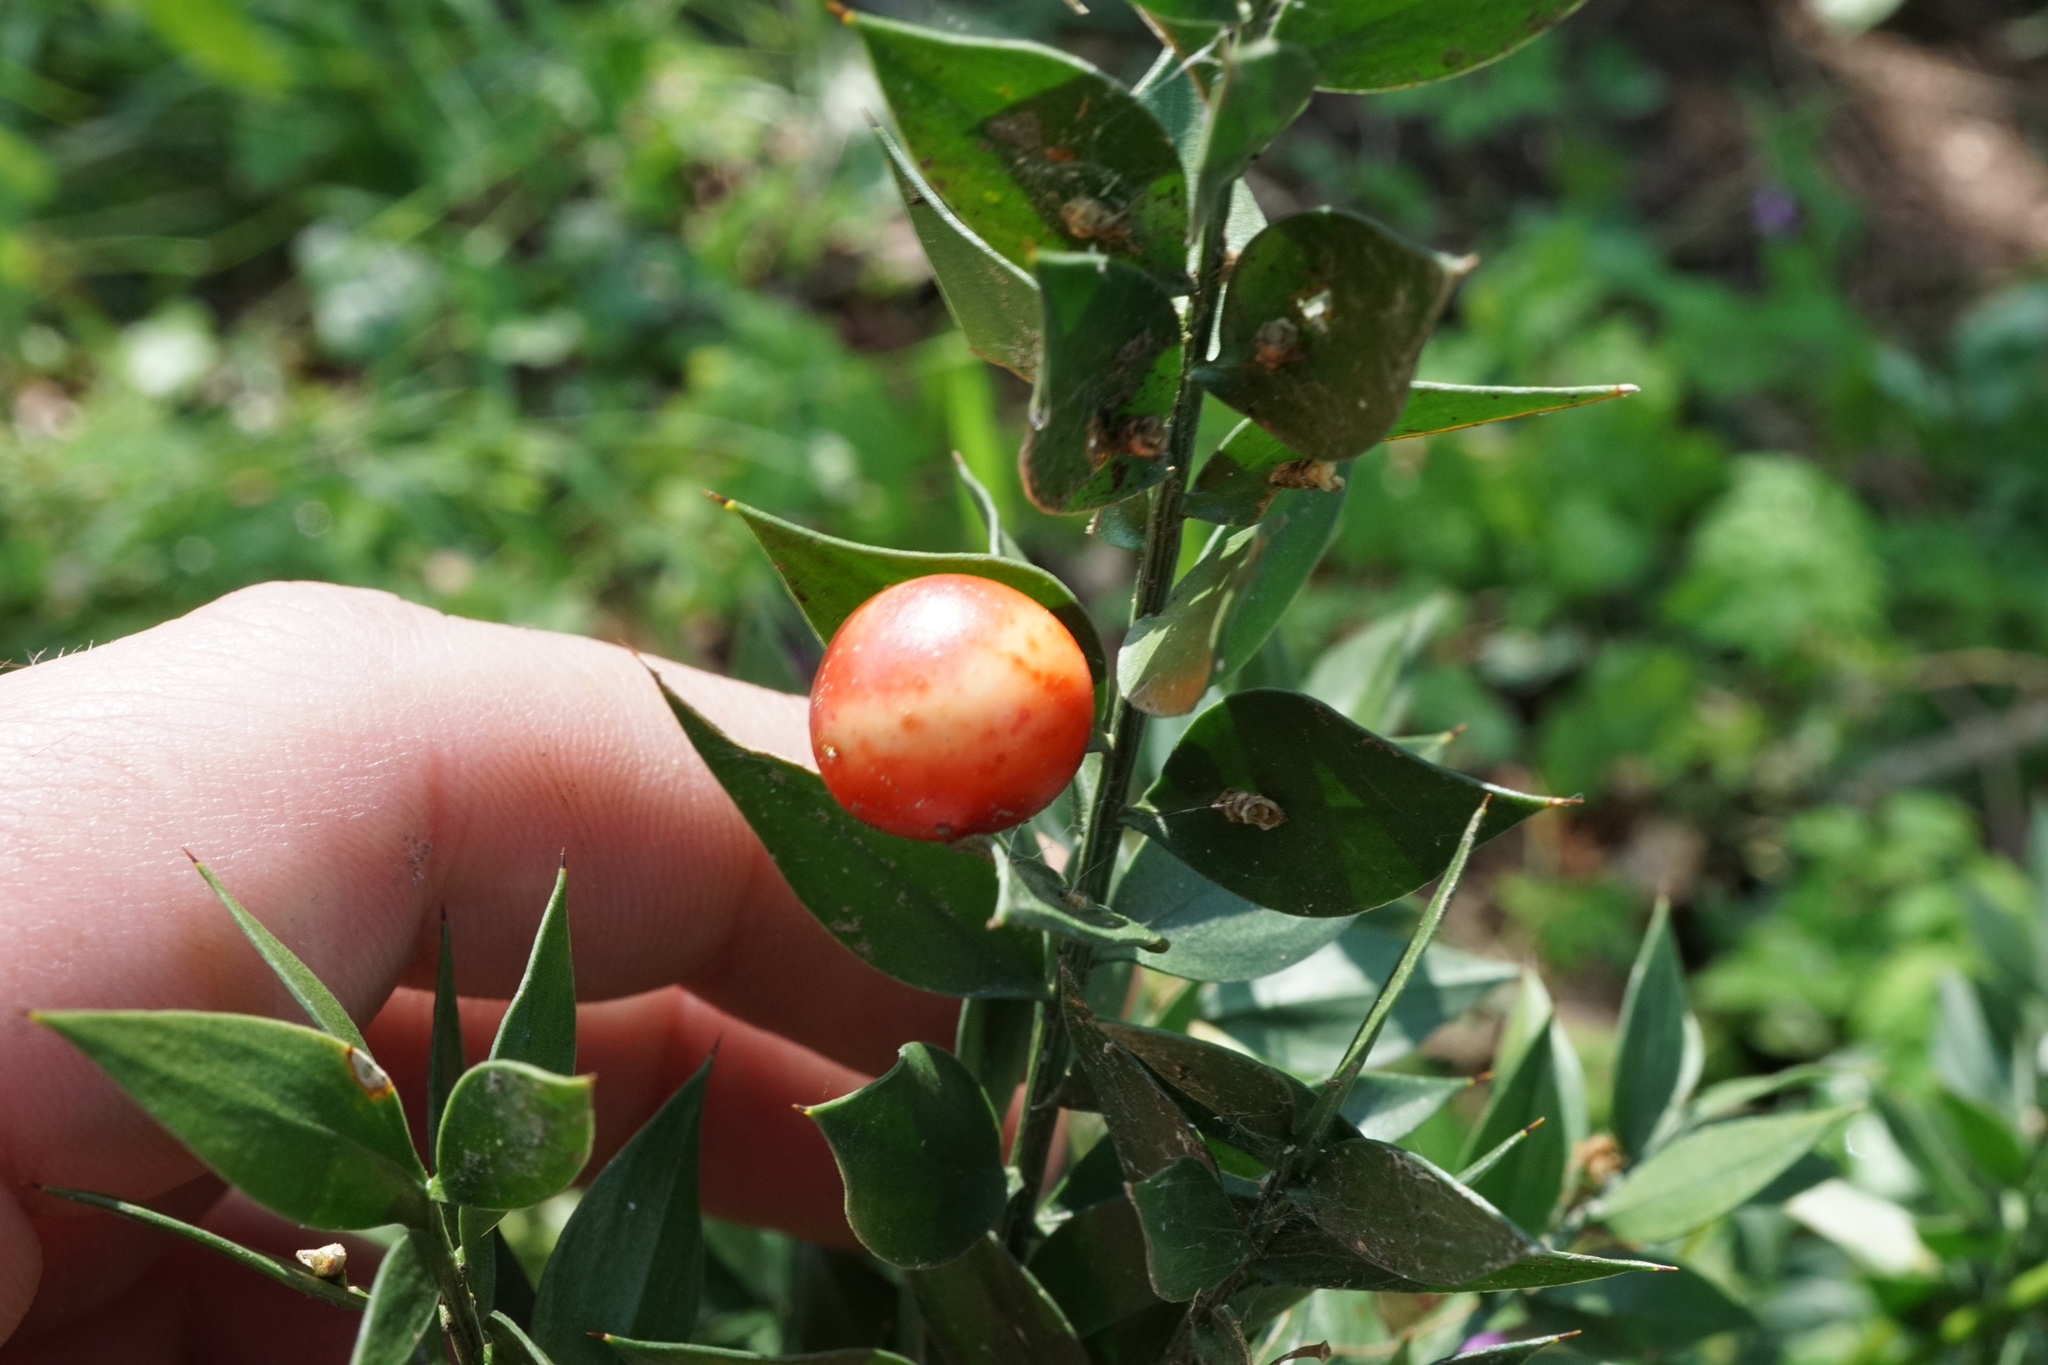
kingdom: Plantae
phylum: Tracheophyta
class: Liliopsida
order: Asparagales
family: Asparagaceae
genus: Ruscus
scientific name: Ruscus aculeatus
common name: Butcher's-broom
